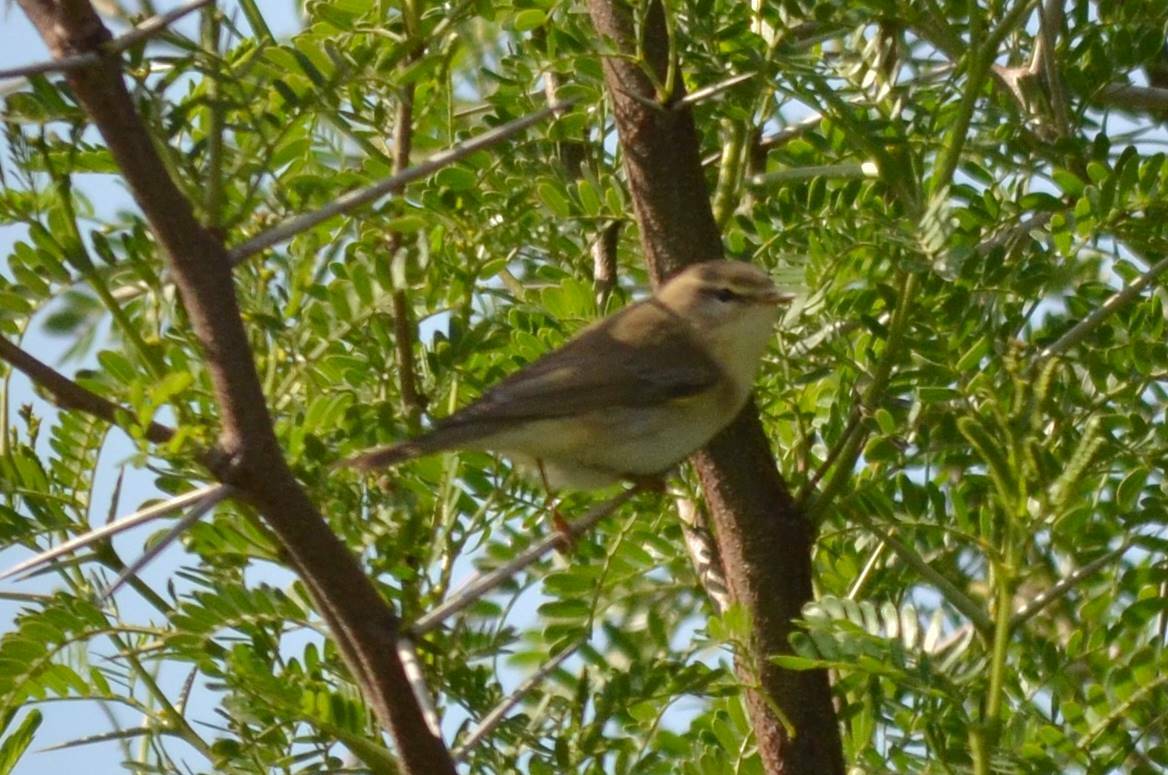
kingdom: Animalia
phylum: Chordata
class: Aves
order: Passeriformes
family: Phylloscopidae
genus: Phylloscopus
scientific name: Phylloscopus collybita
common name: Common chiffchaff
